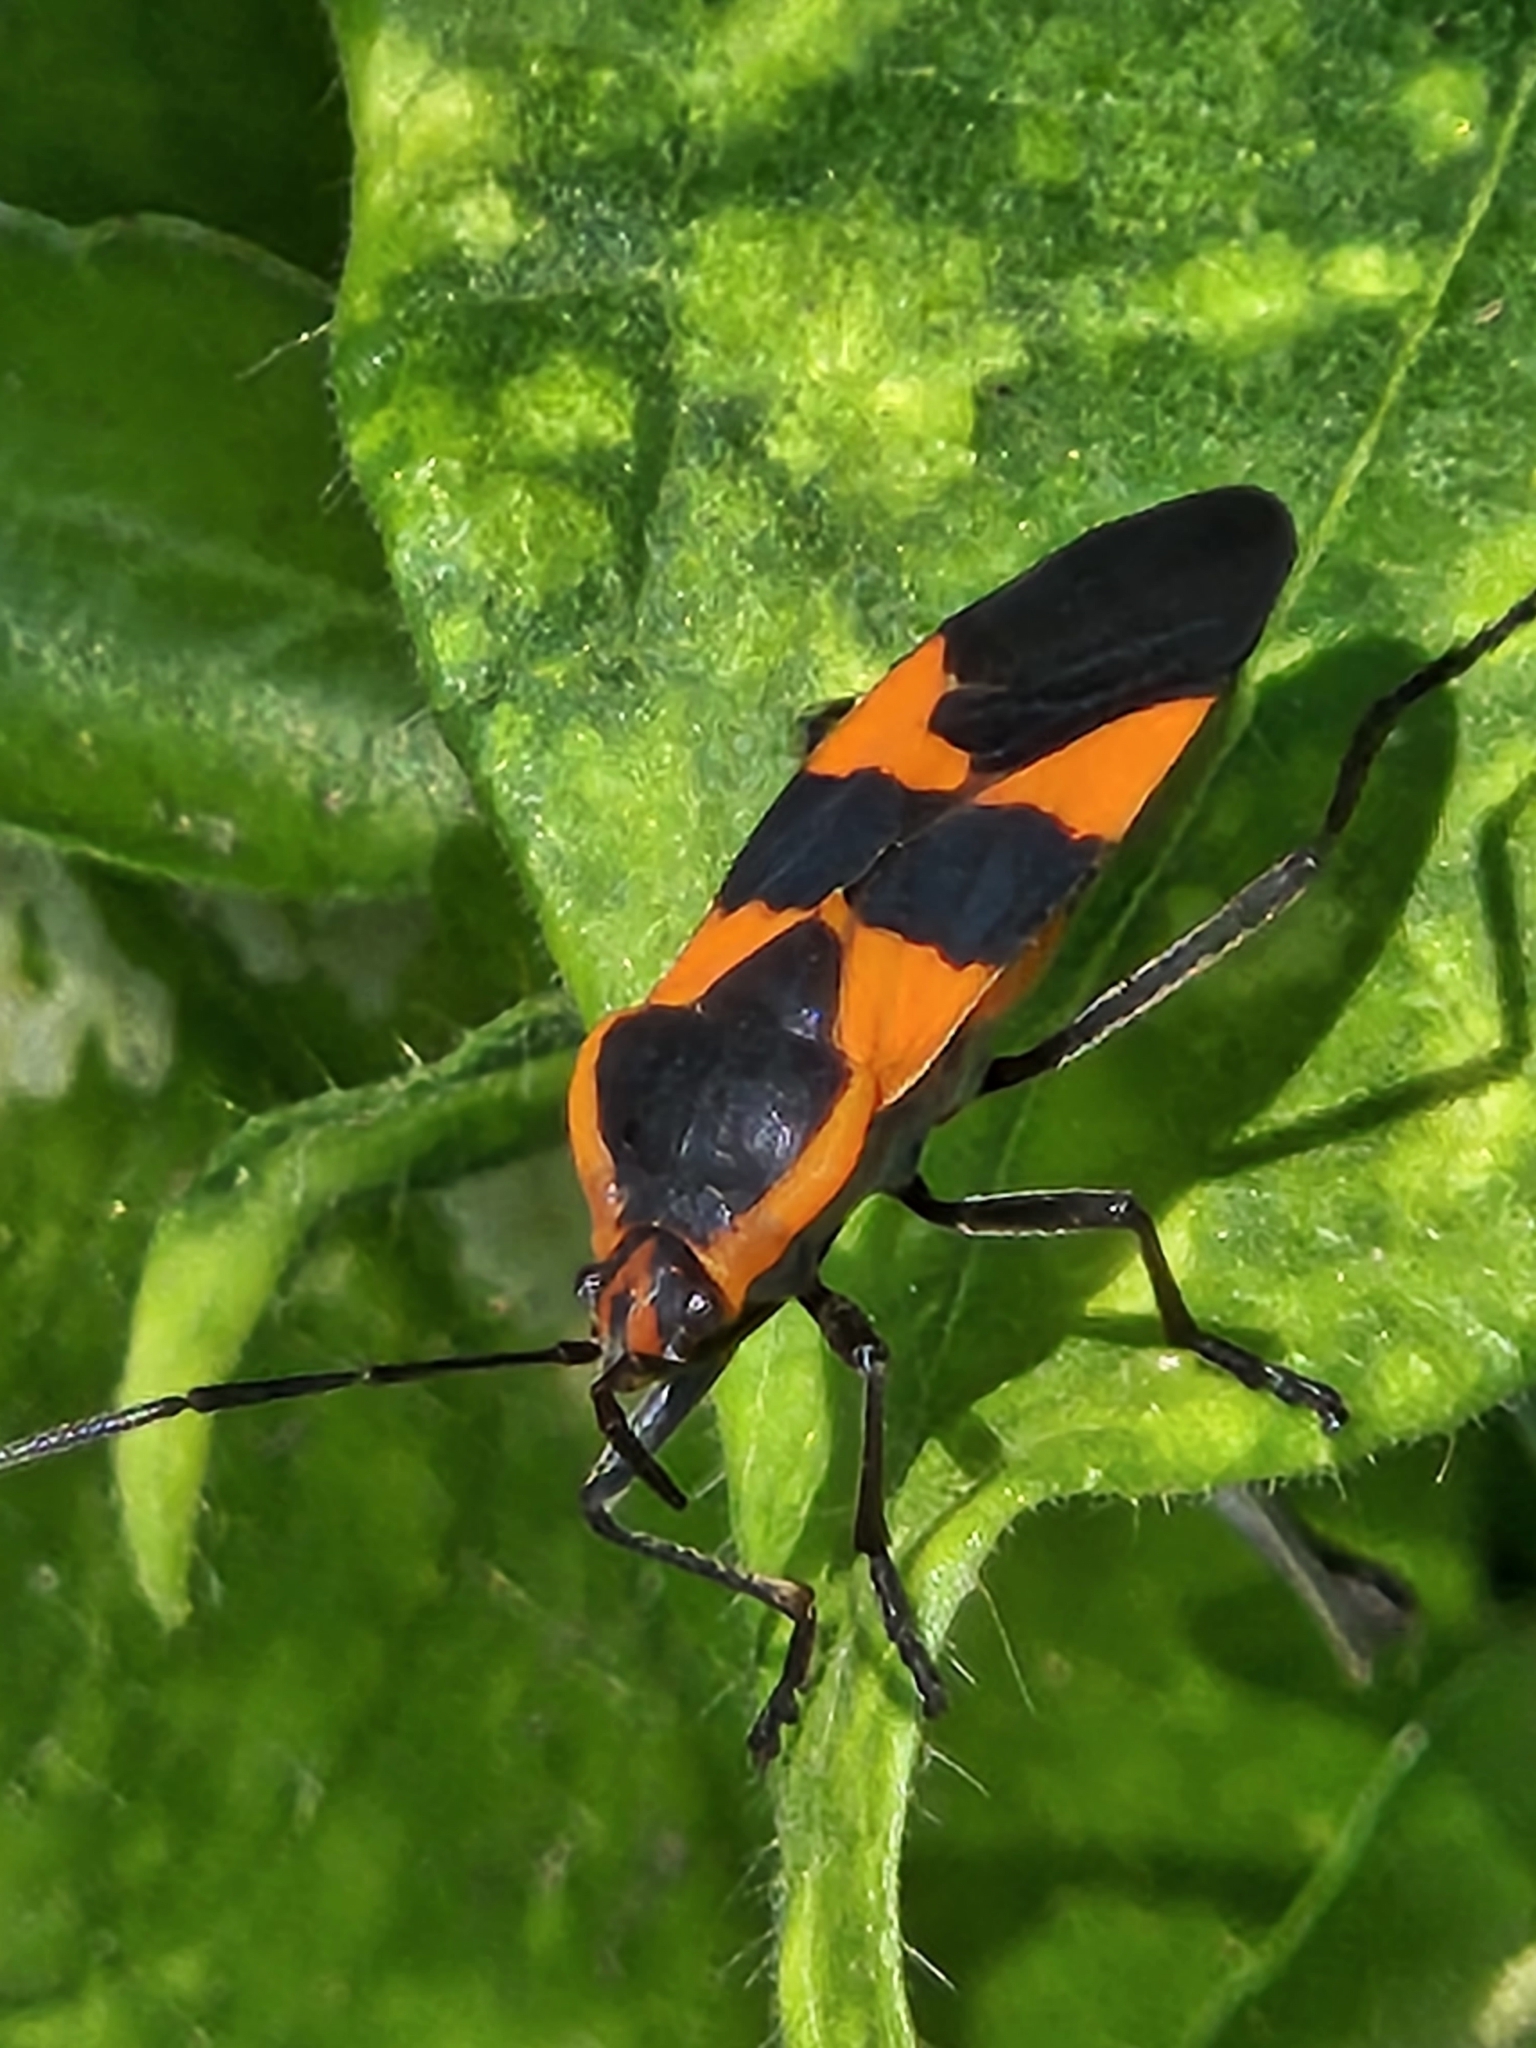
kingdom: Animalia
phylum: Arthropoda
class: Insecta
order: Hemiptera
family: Lygaeidae
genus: Oncopeltus
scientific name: Oncopeltus fasciatus
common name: Large milkweed bug
